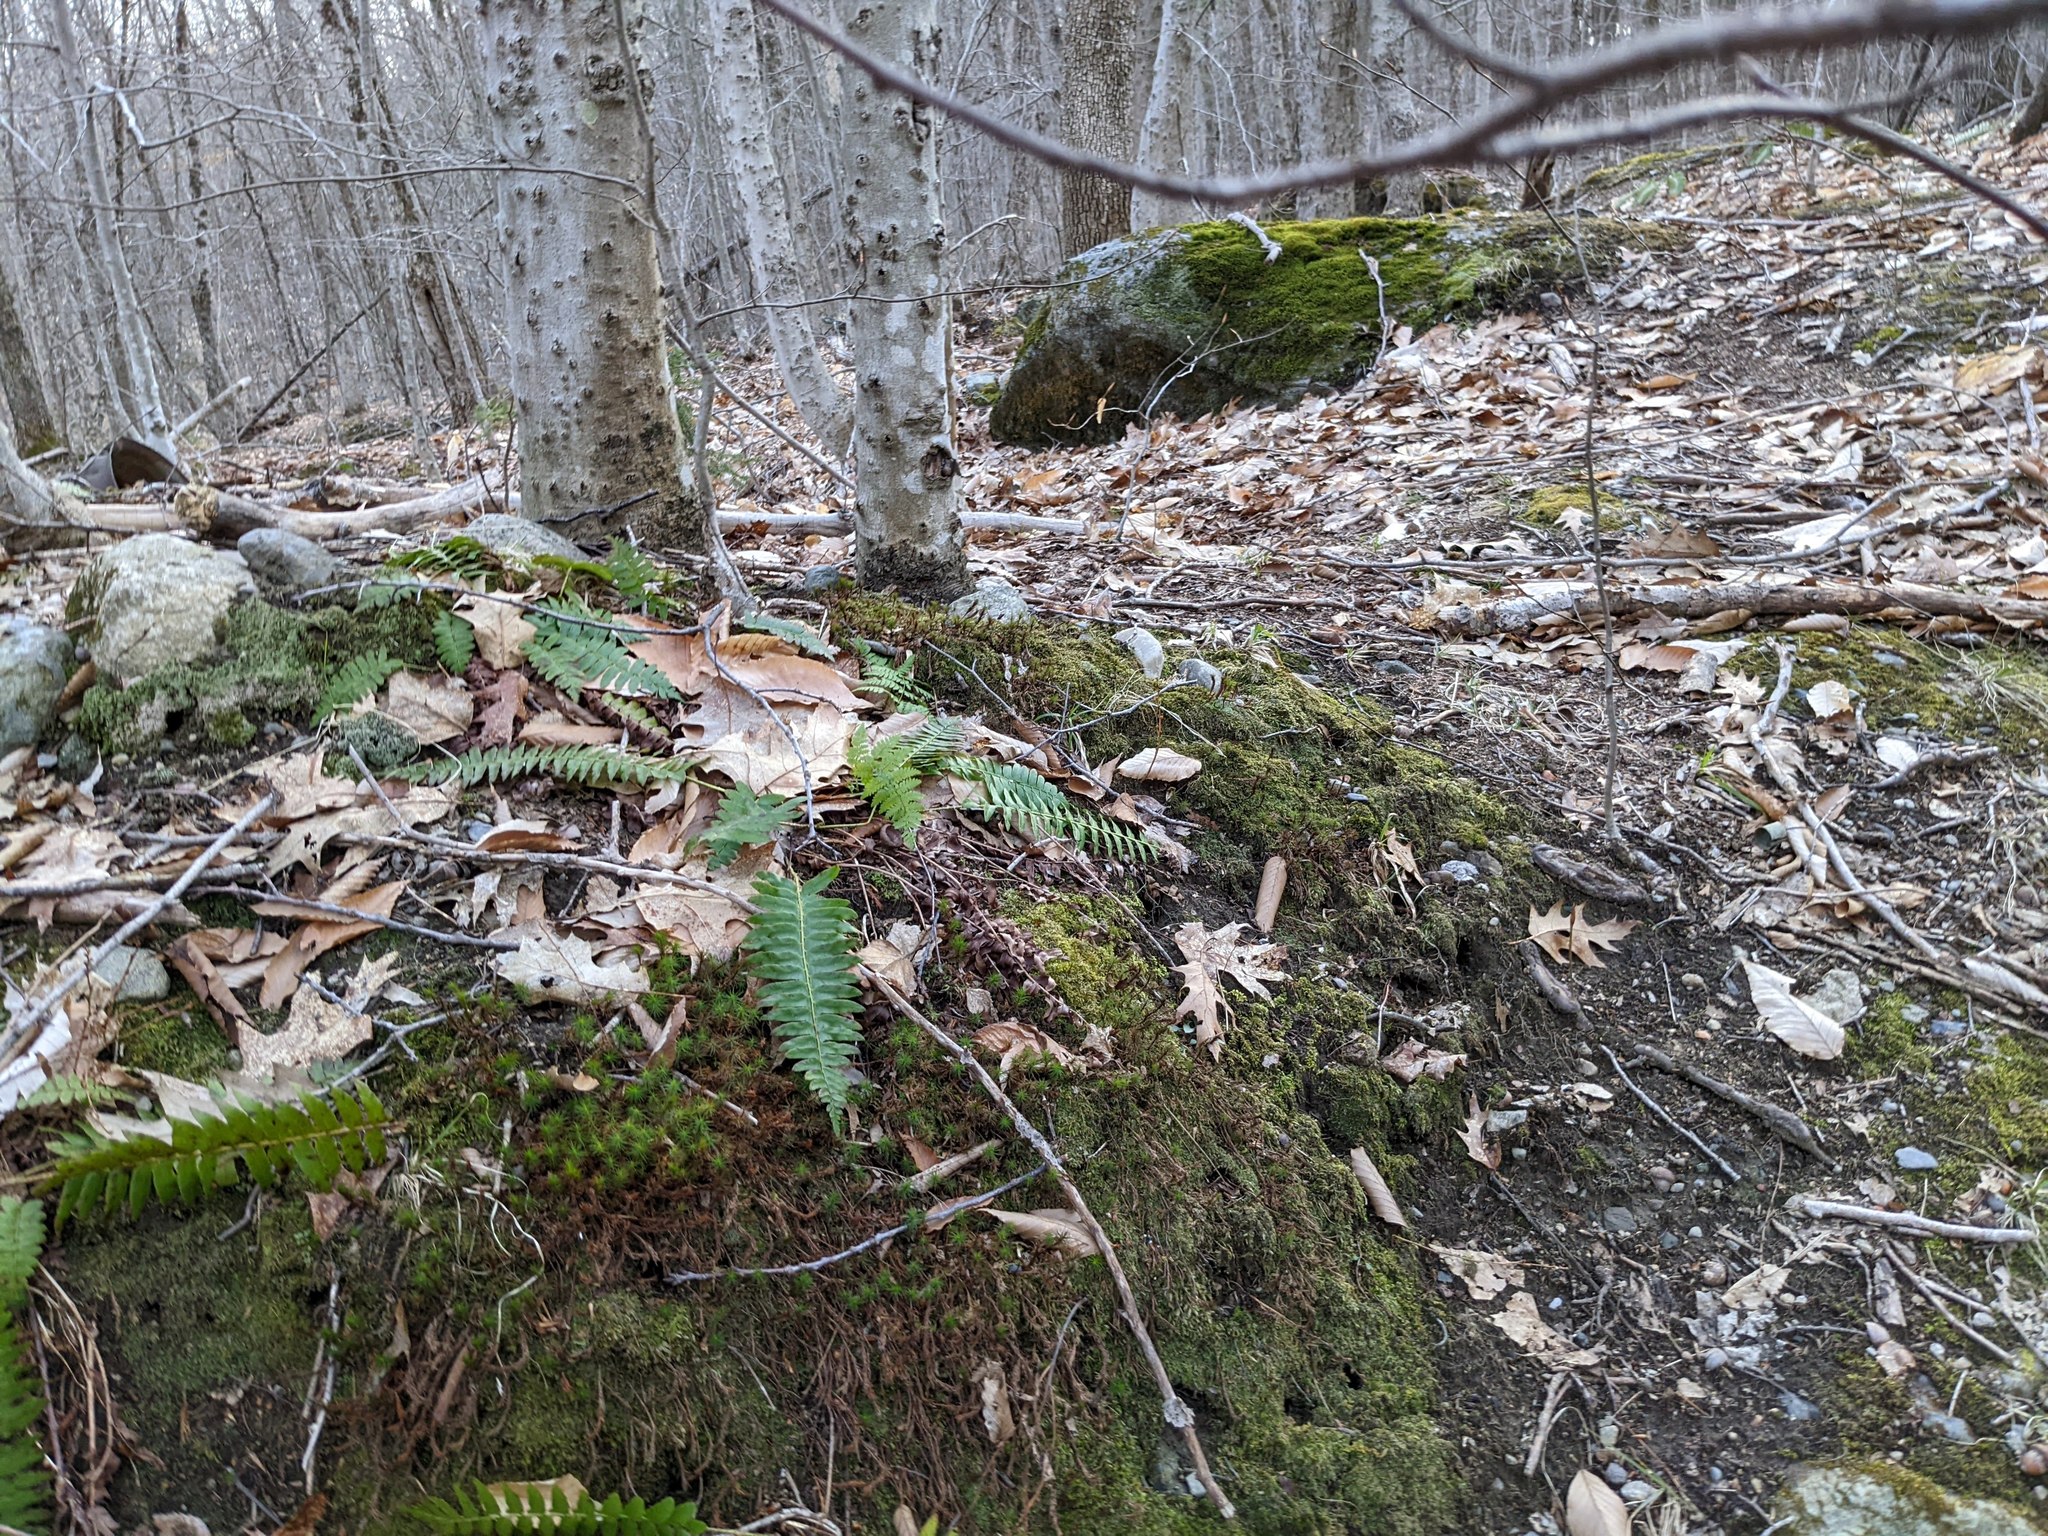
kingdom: Plantae
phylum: Tracheophyta
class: Polypodiopsida
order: Polypodiales
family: Dryopteridaceae
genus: Polystichum
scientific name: Polystichum acrostichoides
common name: Christmas fern
